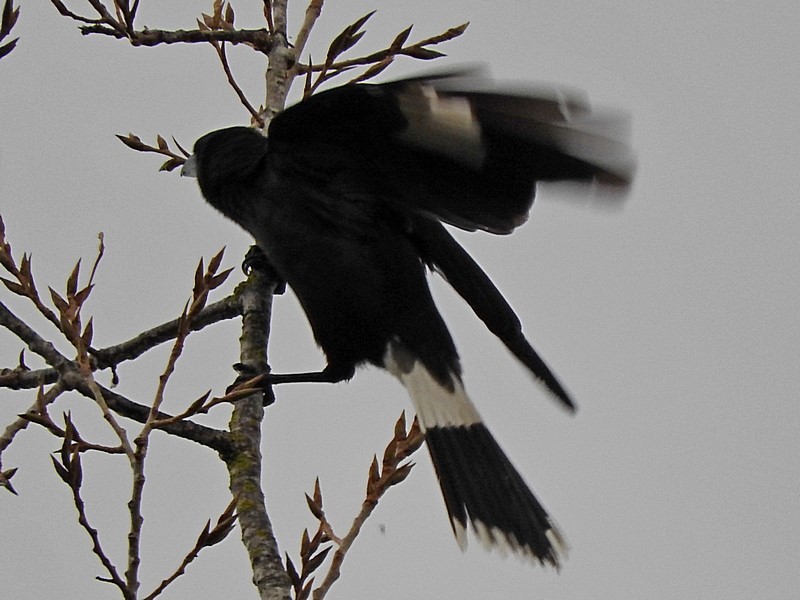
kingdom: Animalia
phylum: Chordata
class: Aves
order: Passeriformes
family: Cracticidae
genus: Strepera
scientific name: Strepera graculina
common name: Pied currawong
